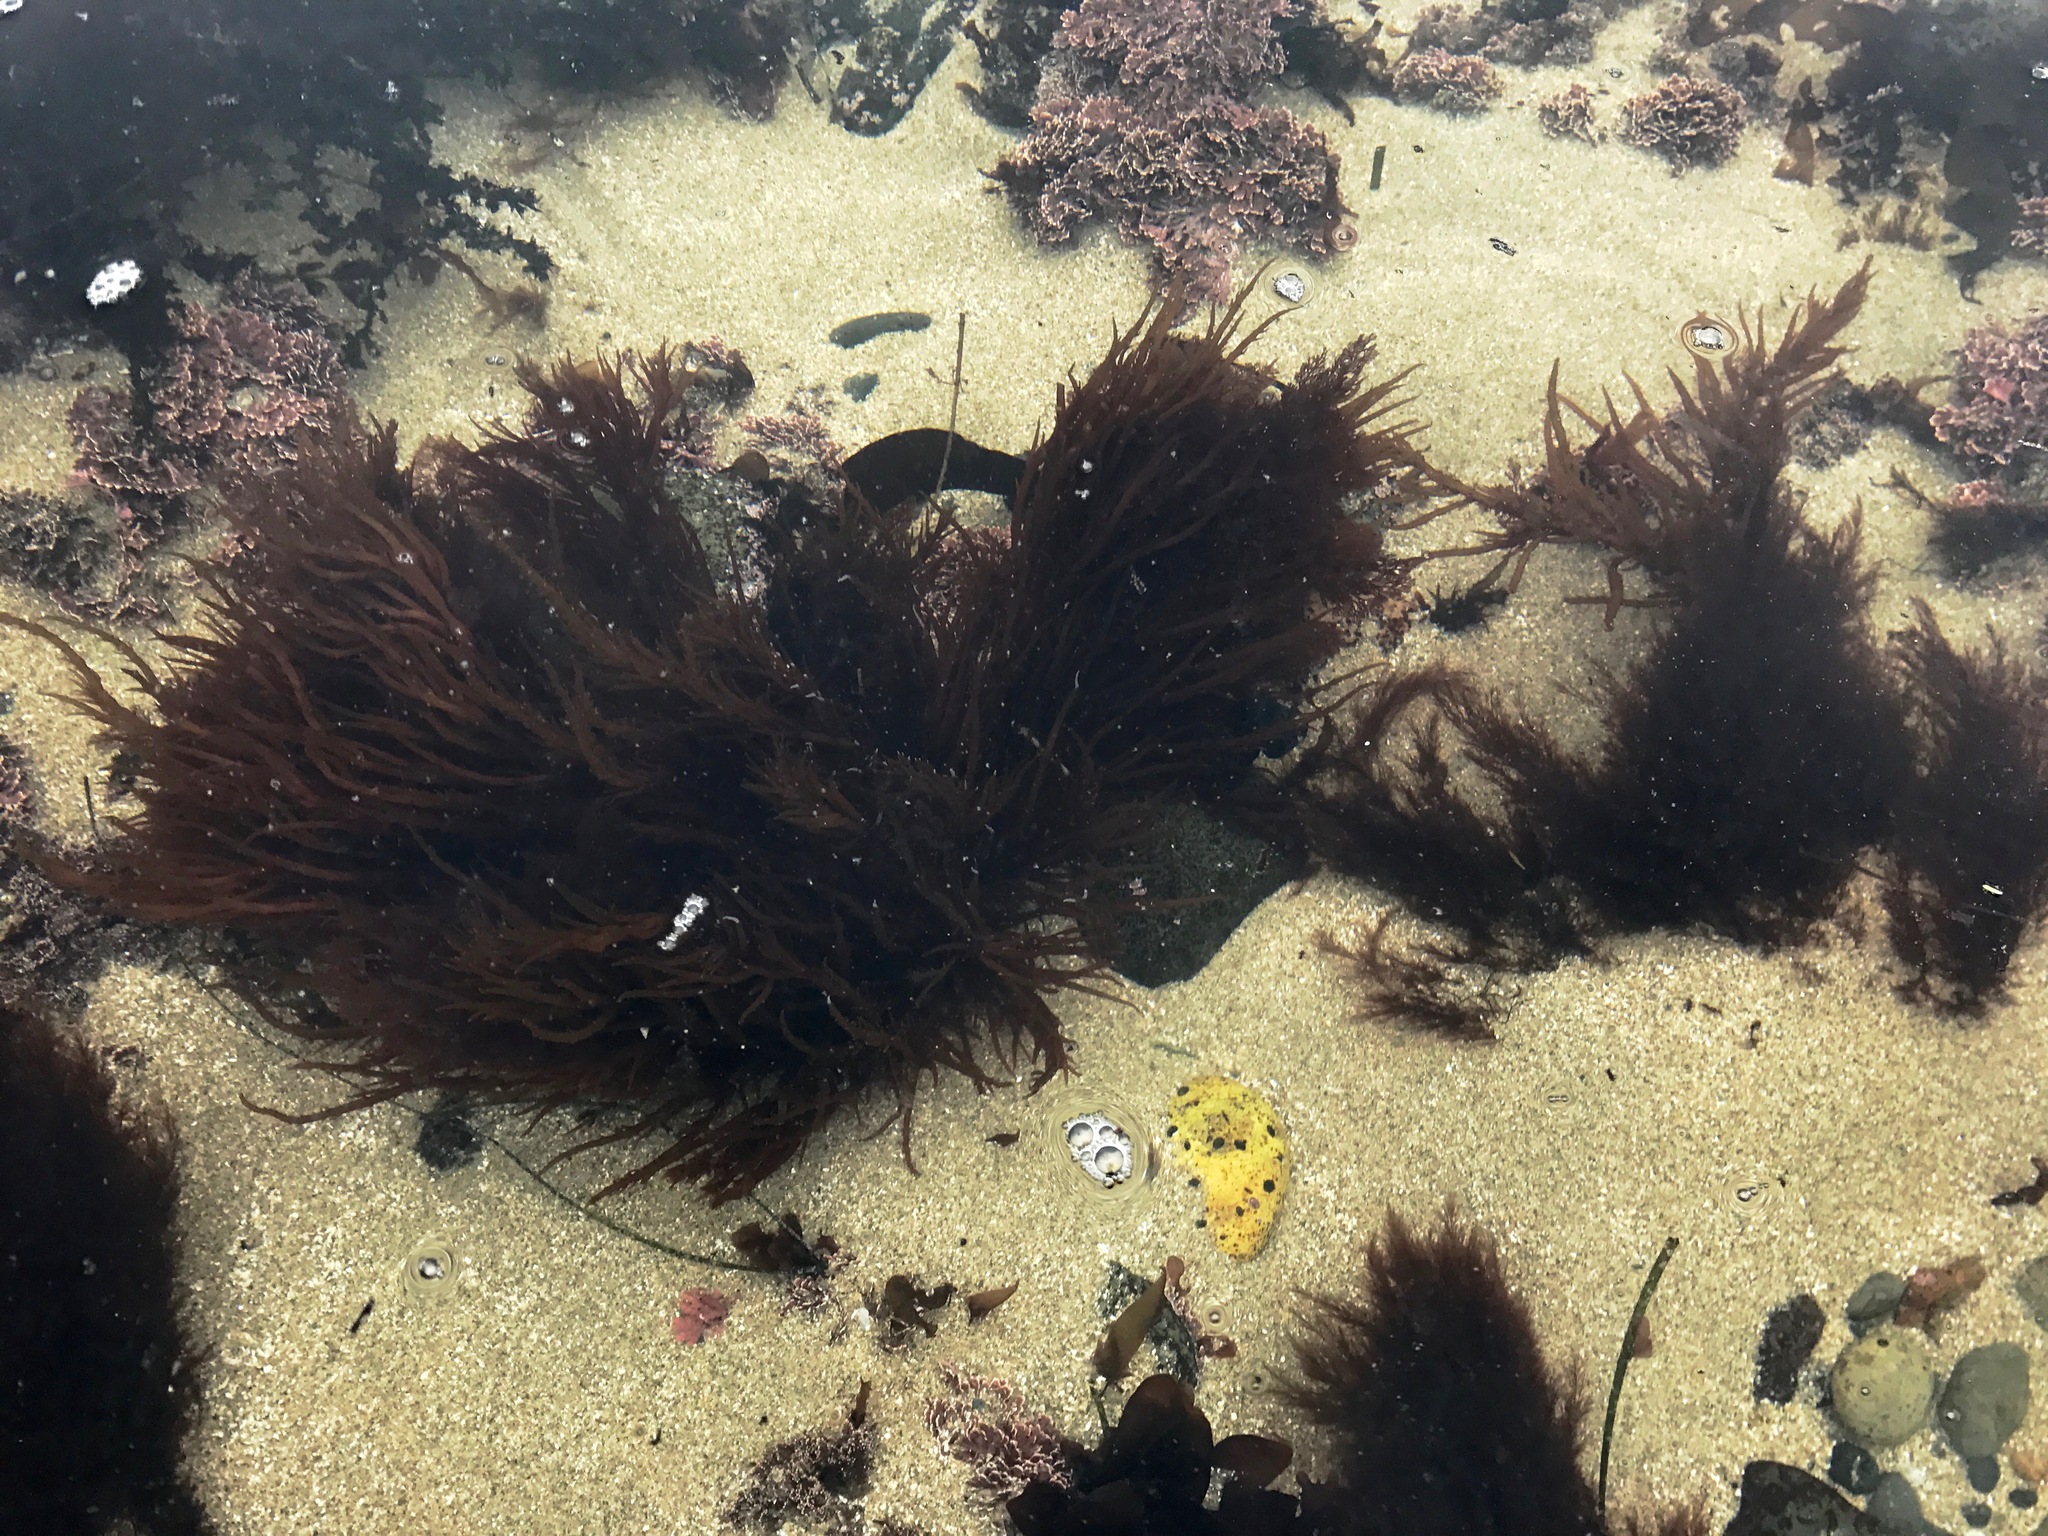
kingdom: Plantae
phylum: Rhodophyta
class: Florideophyceae
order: Gigartinales
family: Solieriaceae
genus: Sarcodiotheca
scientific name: Sarcodiotheca gaudichaudii
